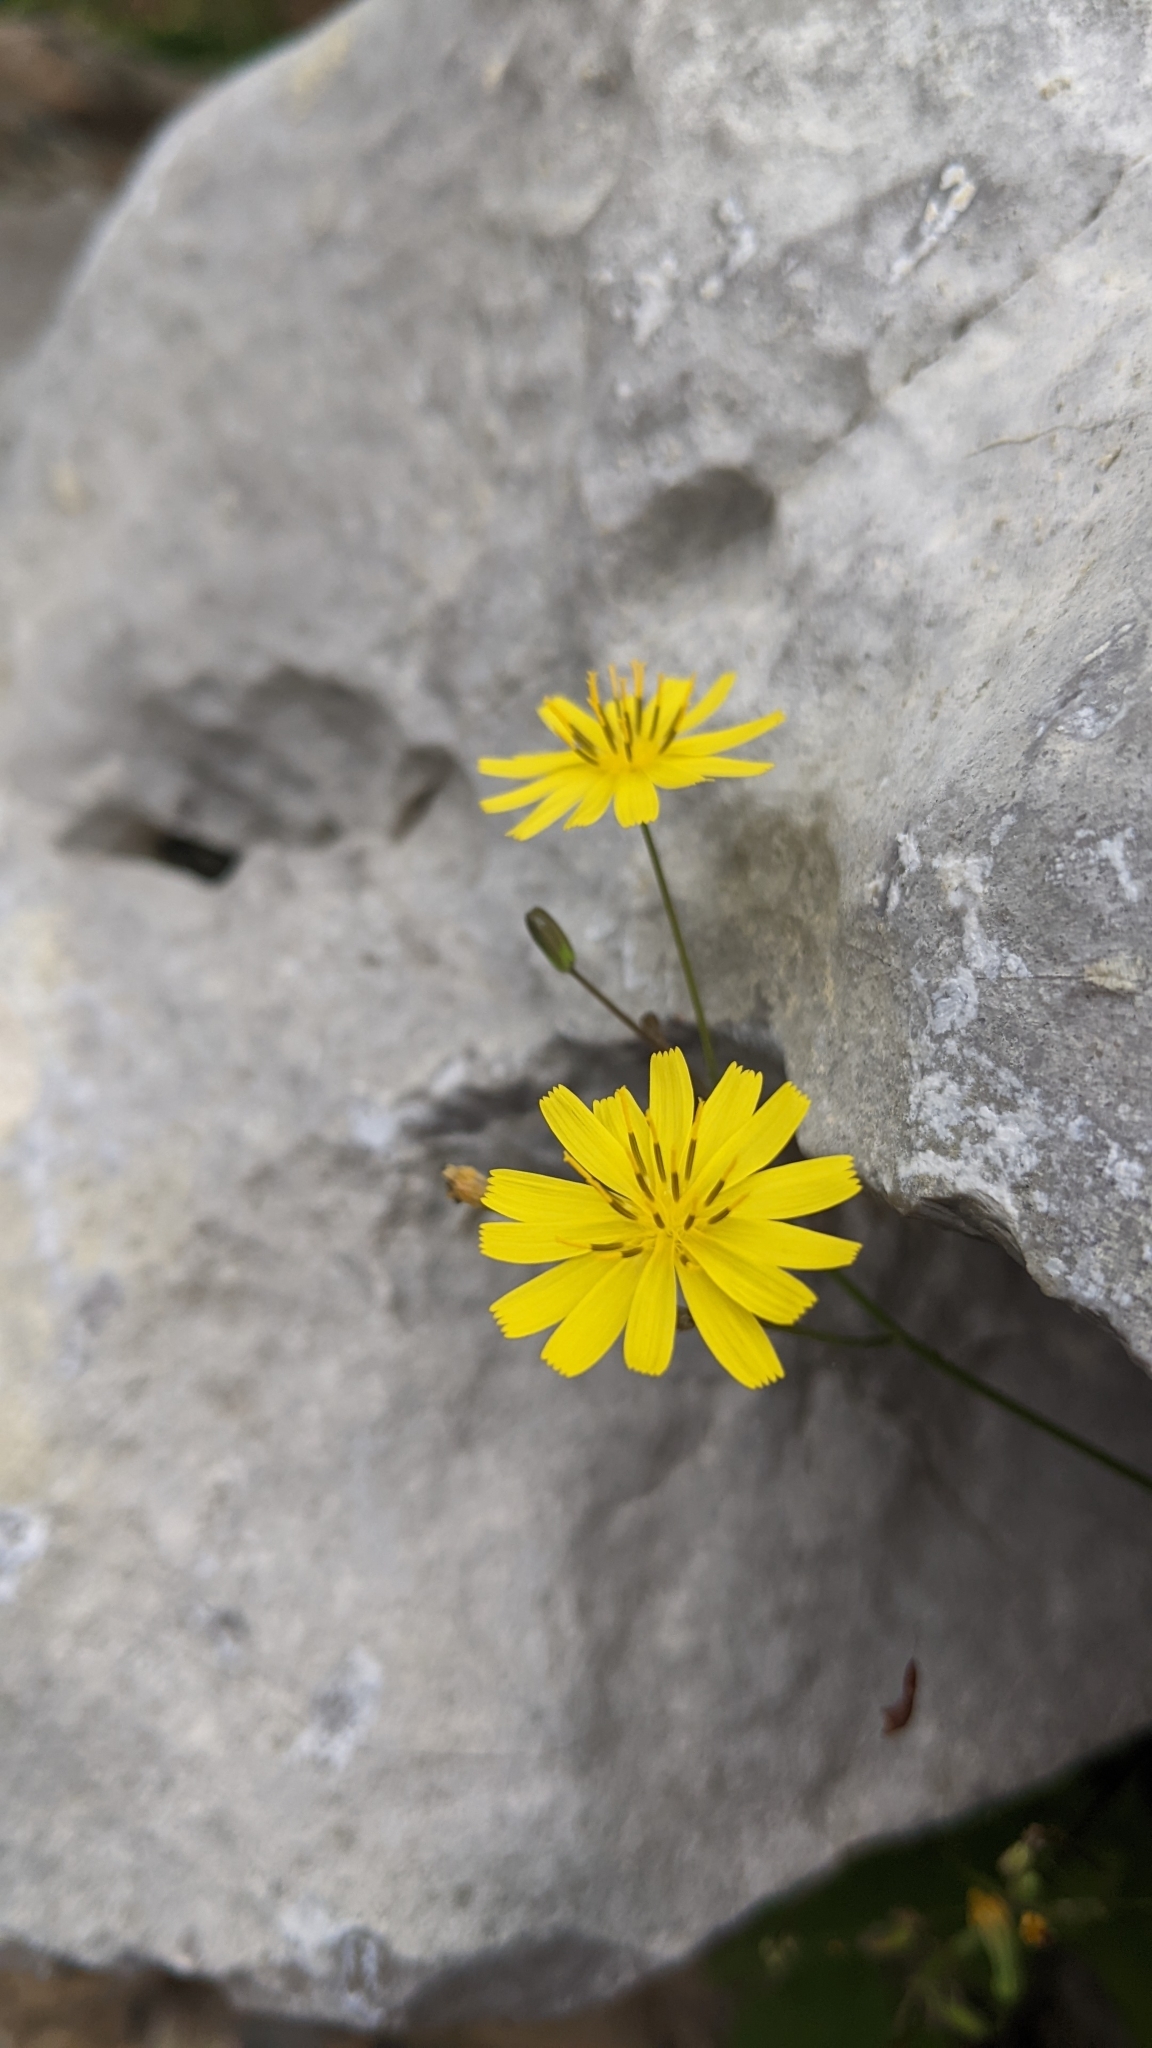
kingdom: Plantae
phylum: Tracheophyta
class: Magnoliopsida
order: Asterales
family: Asteraceae
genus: Lapsana
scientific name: Lapsana communis
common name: Nipplewort
